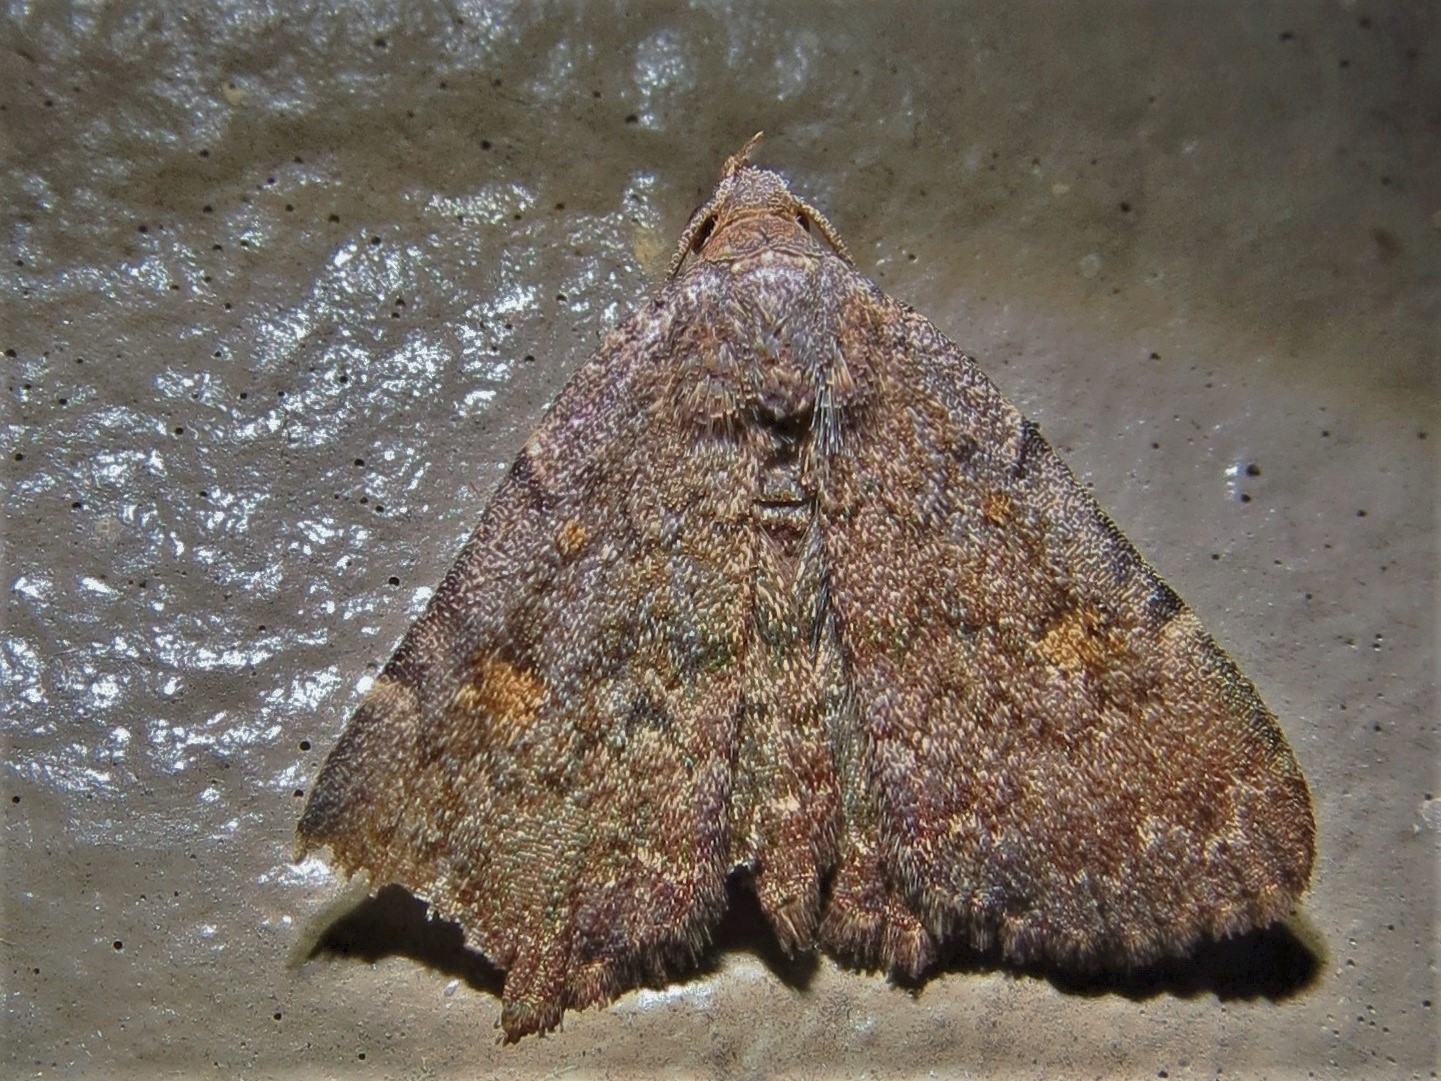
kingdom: Animalia
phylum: Arthropoda
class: Insecta
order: Lepidoptera
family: Erebidae
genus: Idia
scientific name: Idia aemula
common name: Common idia moth
